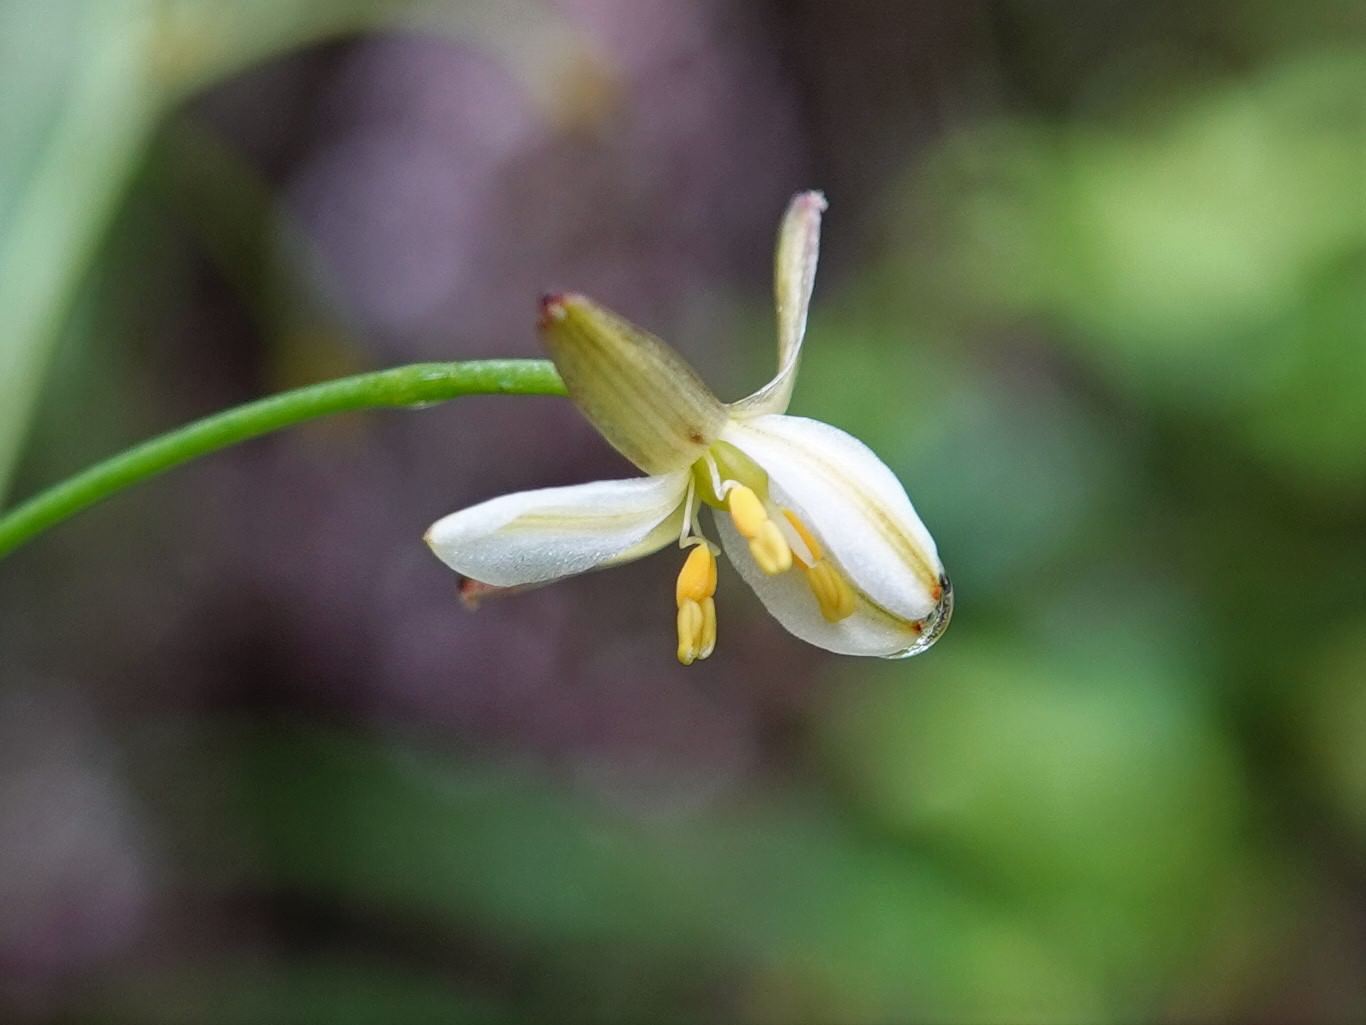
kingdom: Plantae
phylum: Tracheophyta
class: Liliopsida
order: Asparagales
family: Asphodelaceae
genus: Dianella
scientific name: Dianella nigra
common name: New zealand-blueberry
